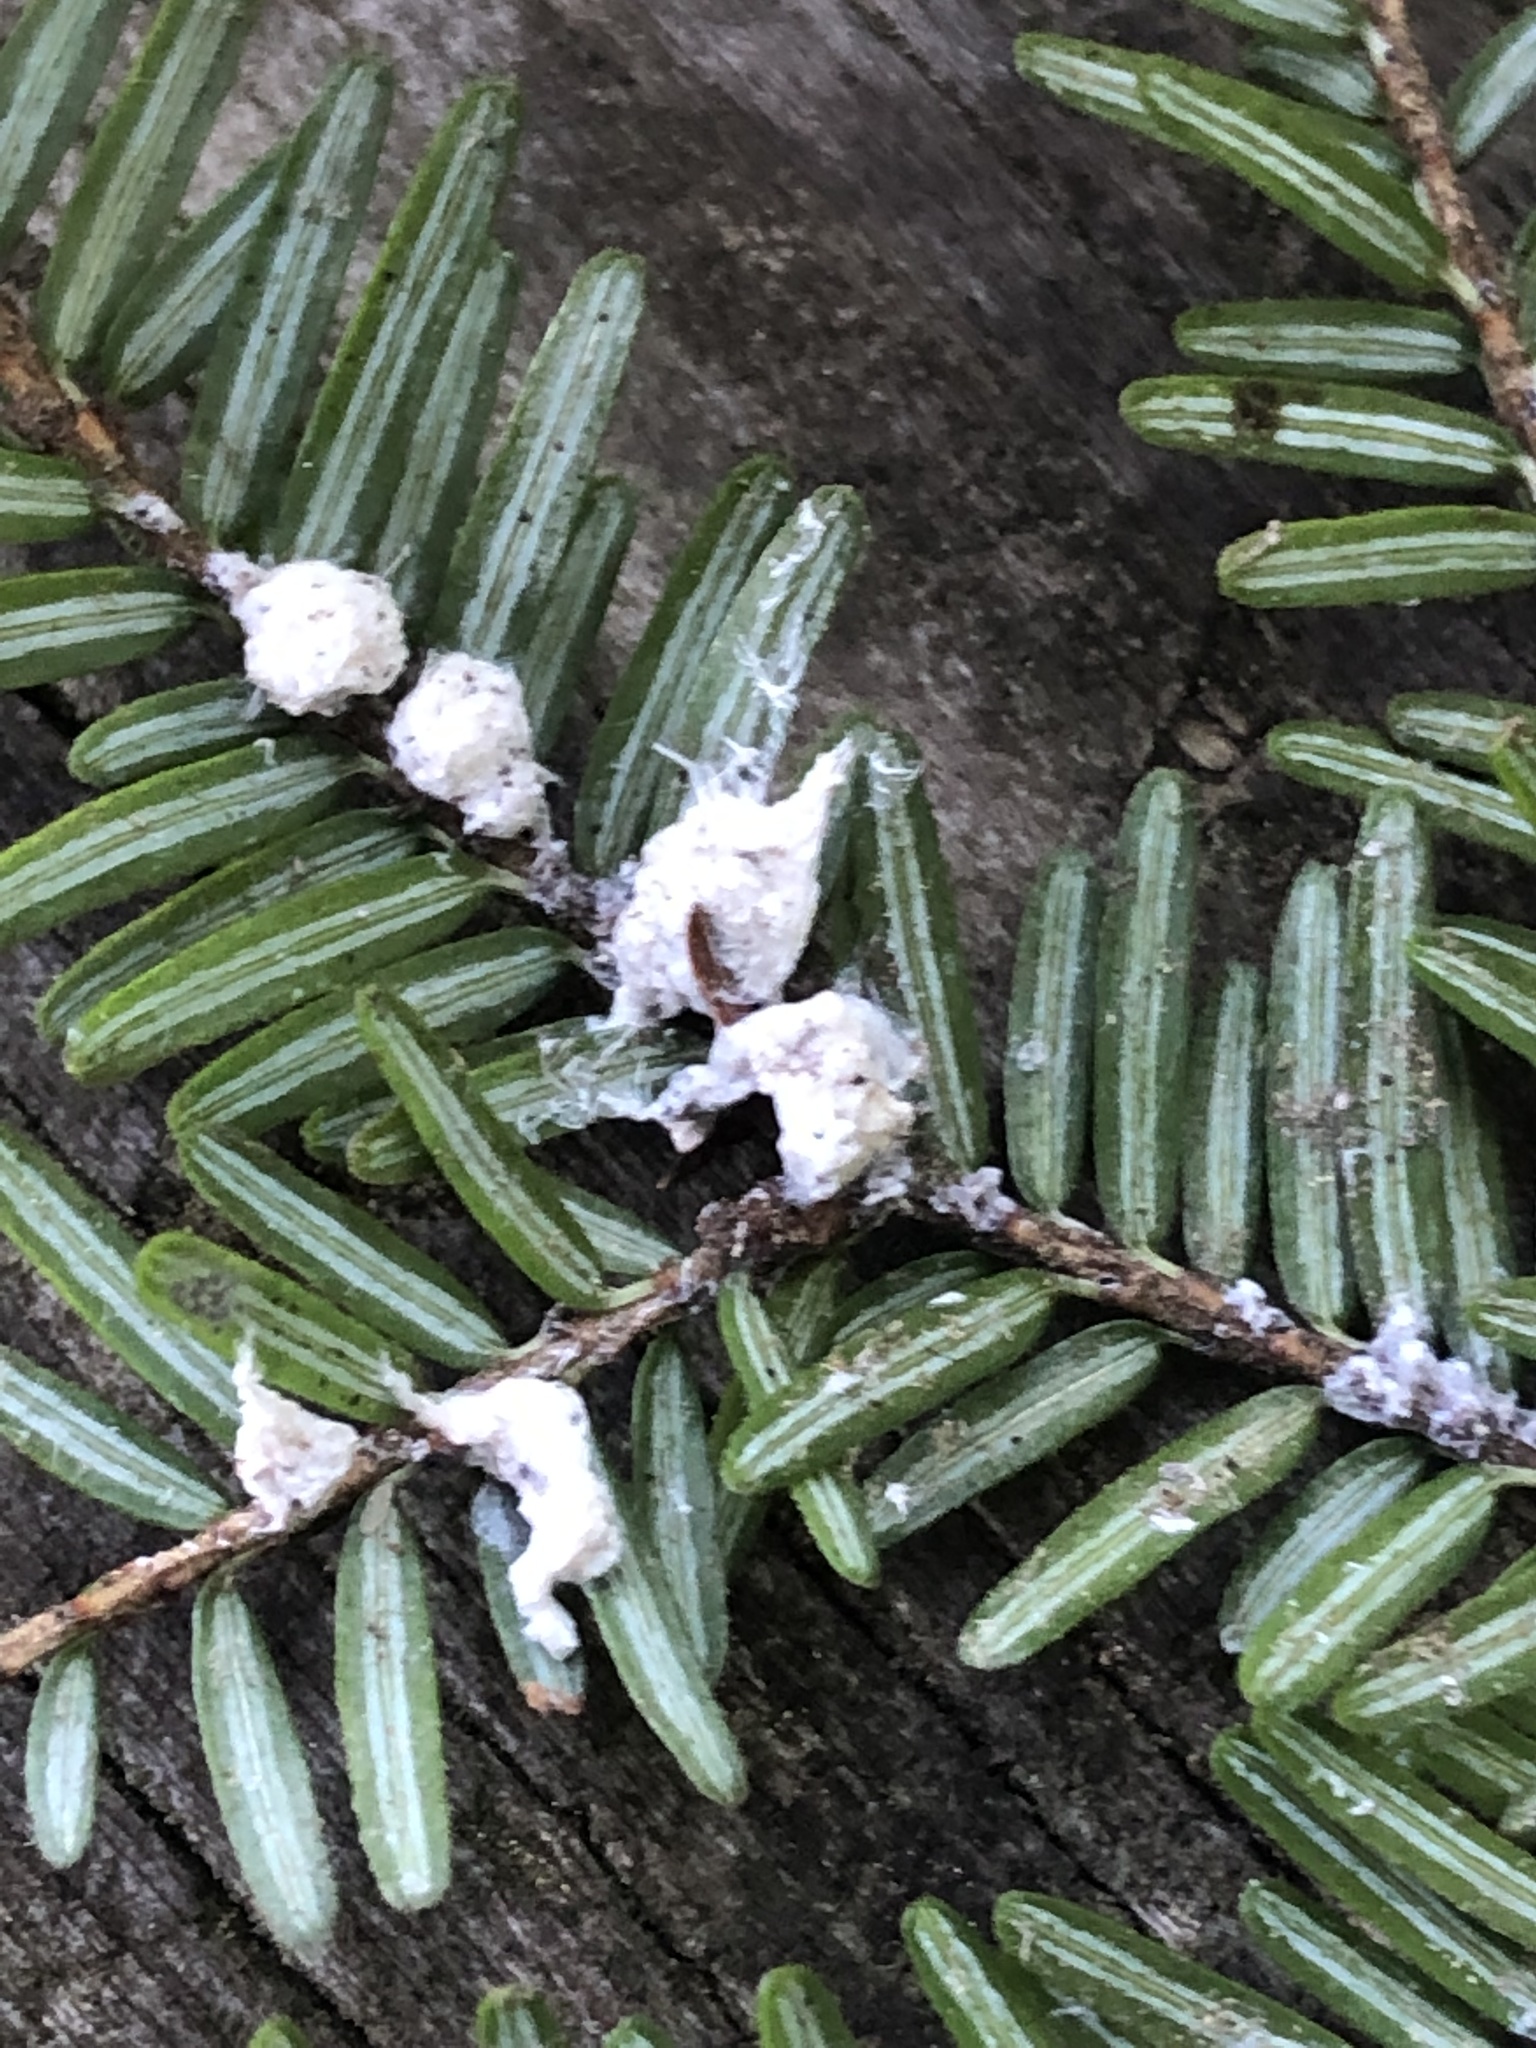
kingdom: Animalia
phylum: Arthropoda
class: Insecta
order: Hemiptera
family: Adelgidae
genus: Adelges
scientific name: Adelges tsugae
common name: Hemlock woolly adelgid
